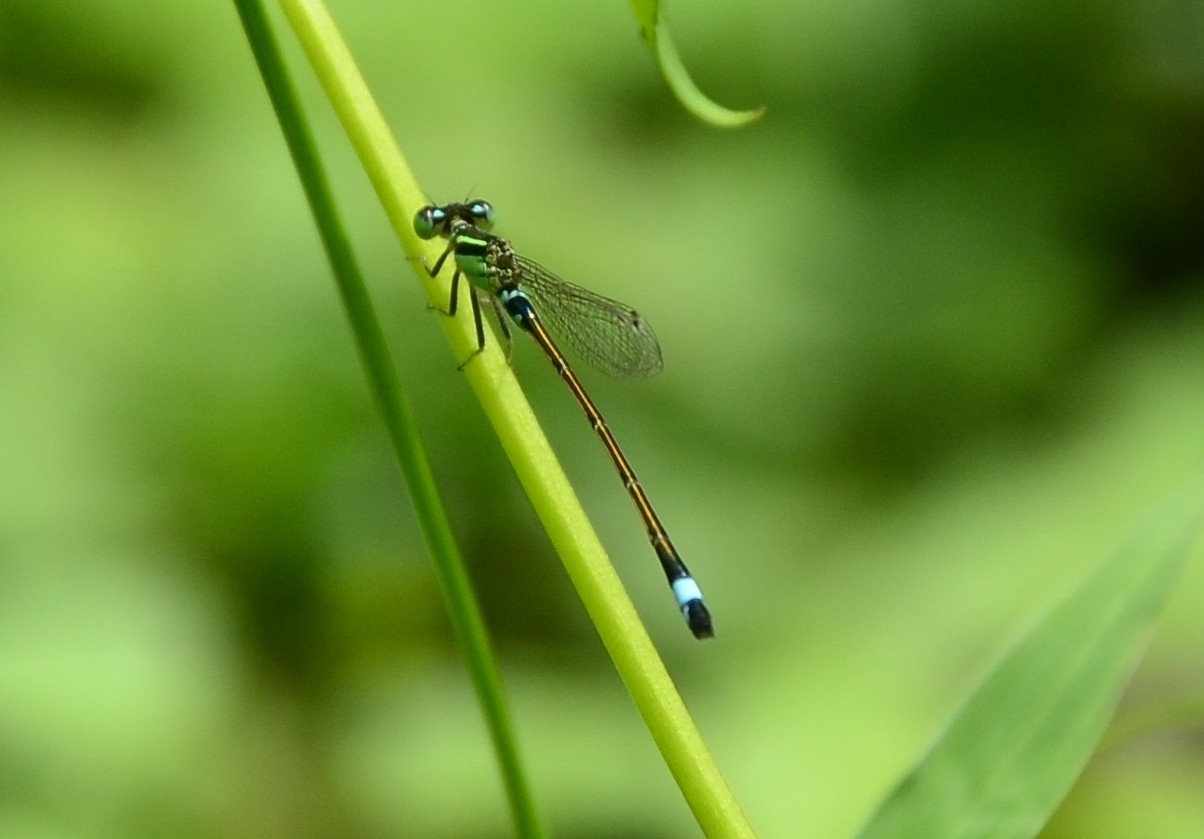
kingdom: Animalia
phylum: Arthropoda
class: Insecta
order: Odonata
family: Coenagrionidae
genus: Ischnura
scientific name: Ischnura senegalensis
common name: Tropical bluetail
